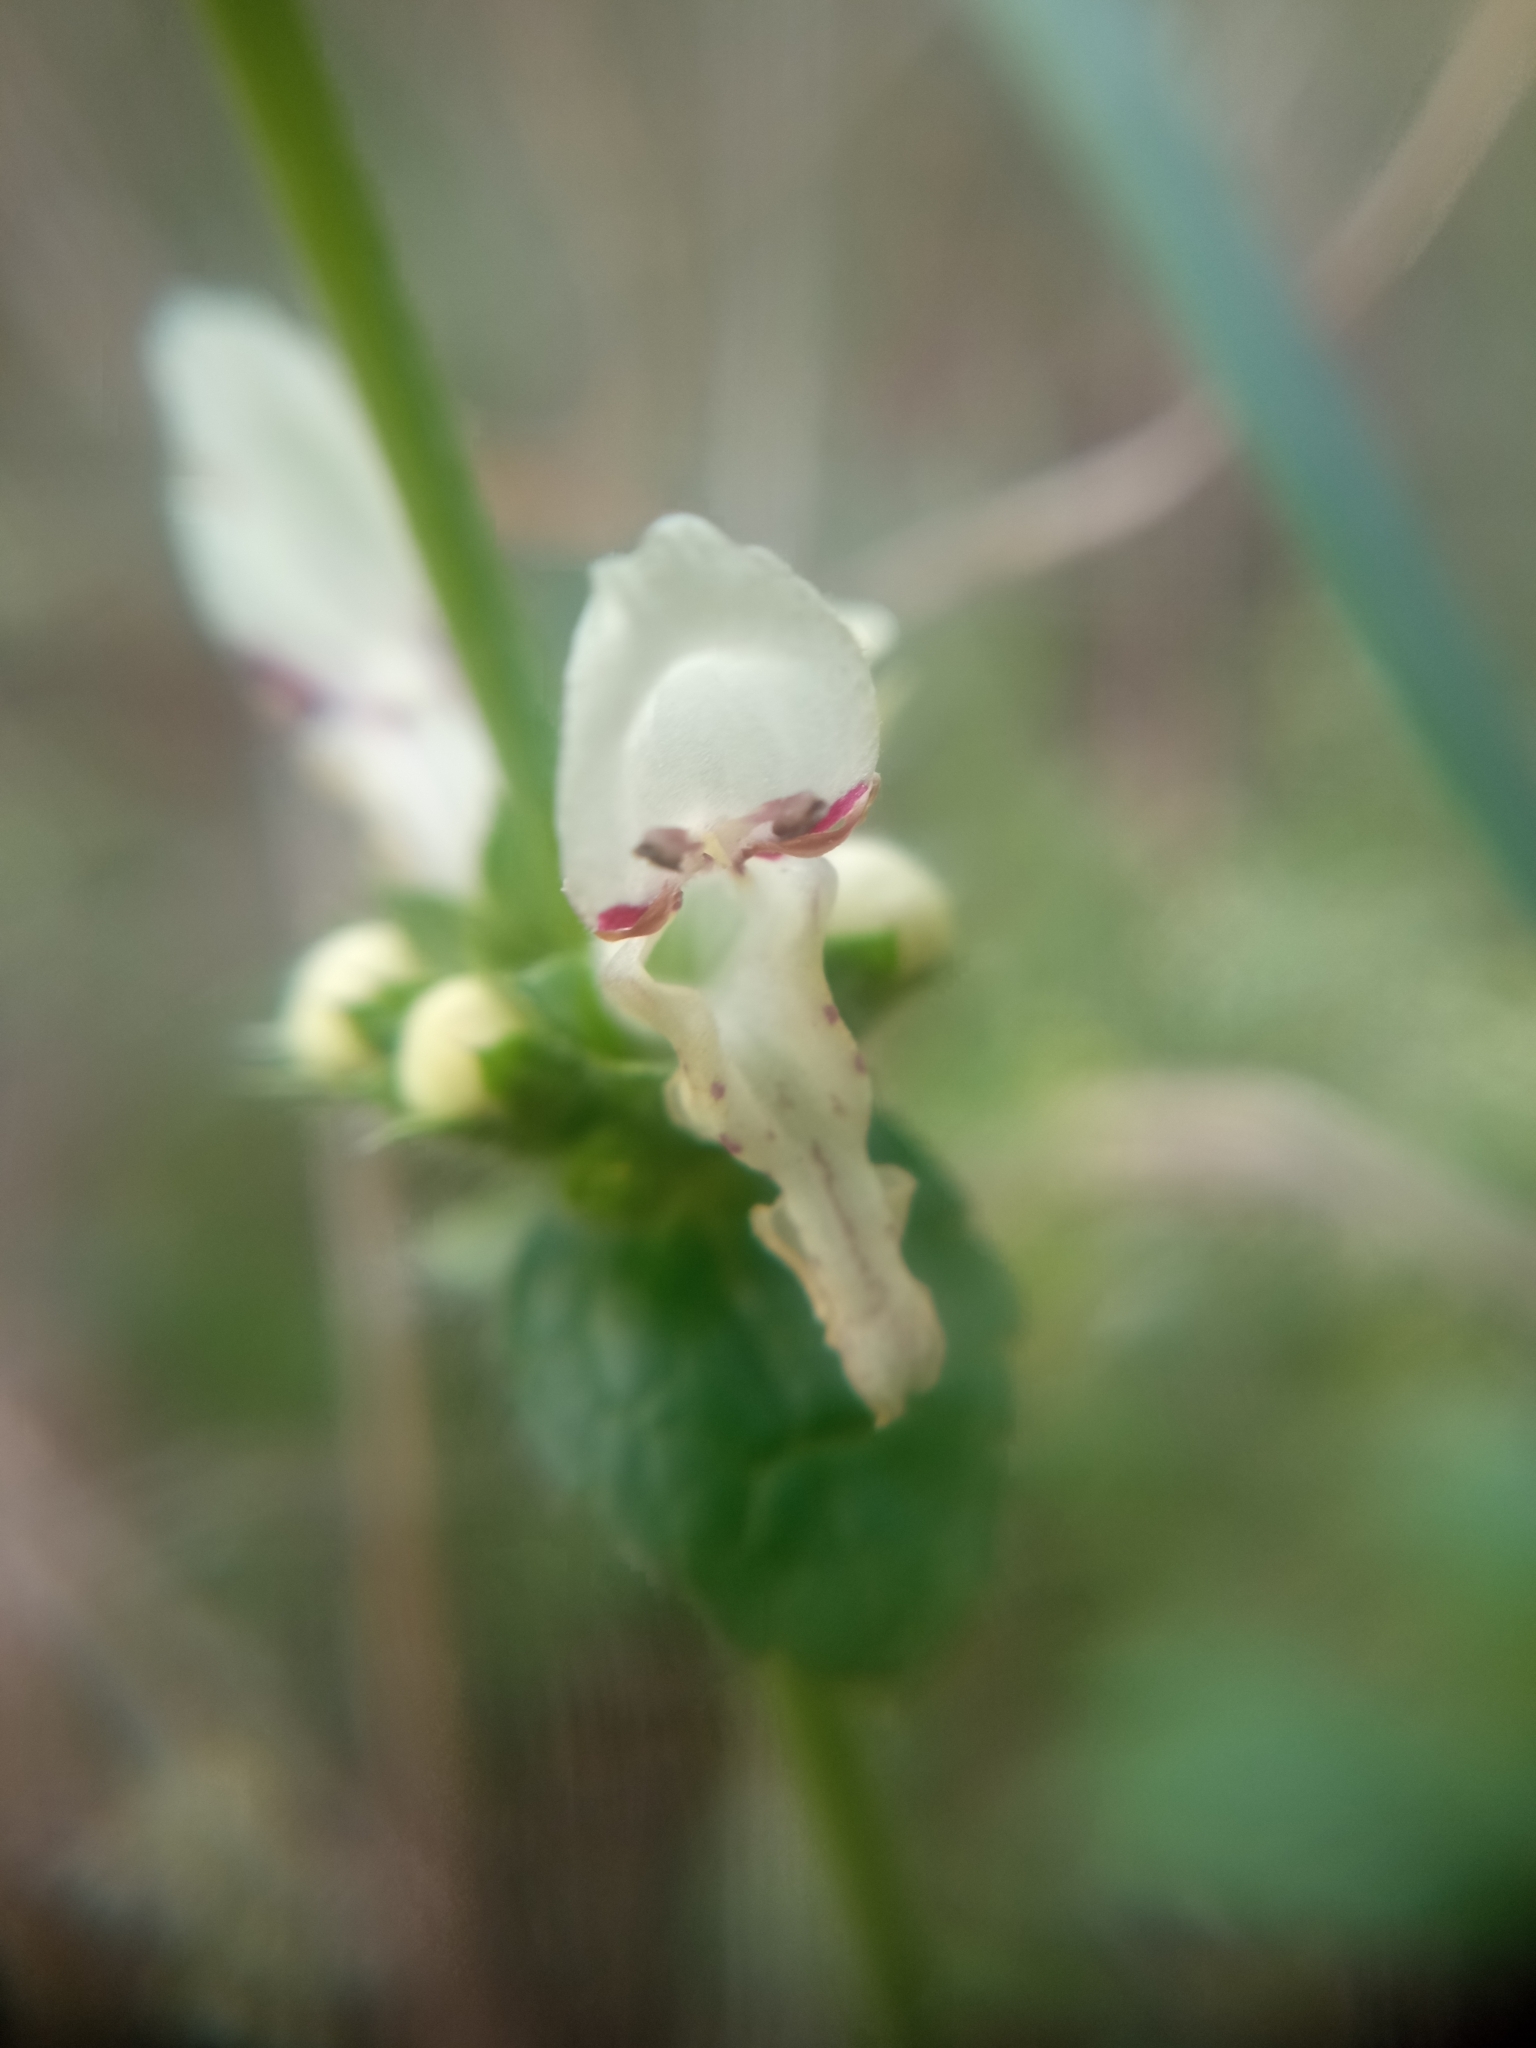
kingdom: Plantae
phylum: Tracheophyta
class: Magnoliopsida
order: Lamiales
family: Lamiaceae
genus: Stachys
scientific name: Stachys recta
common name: Perennial yellow-woundwort
